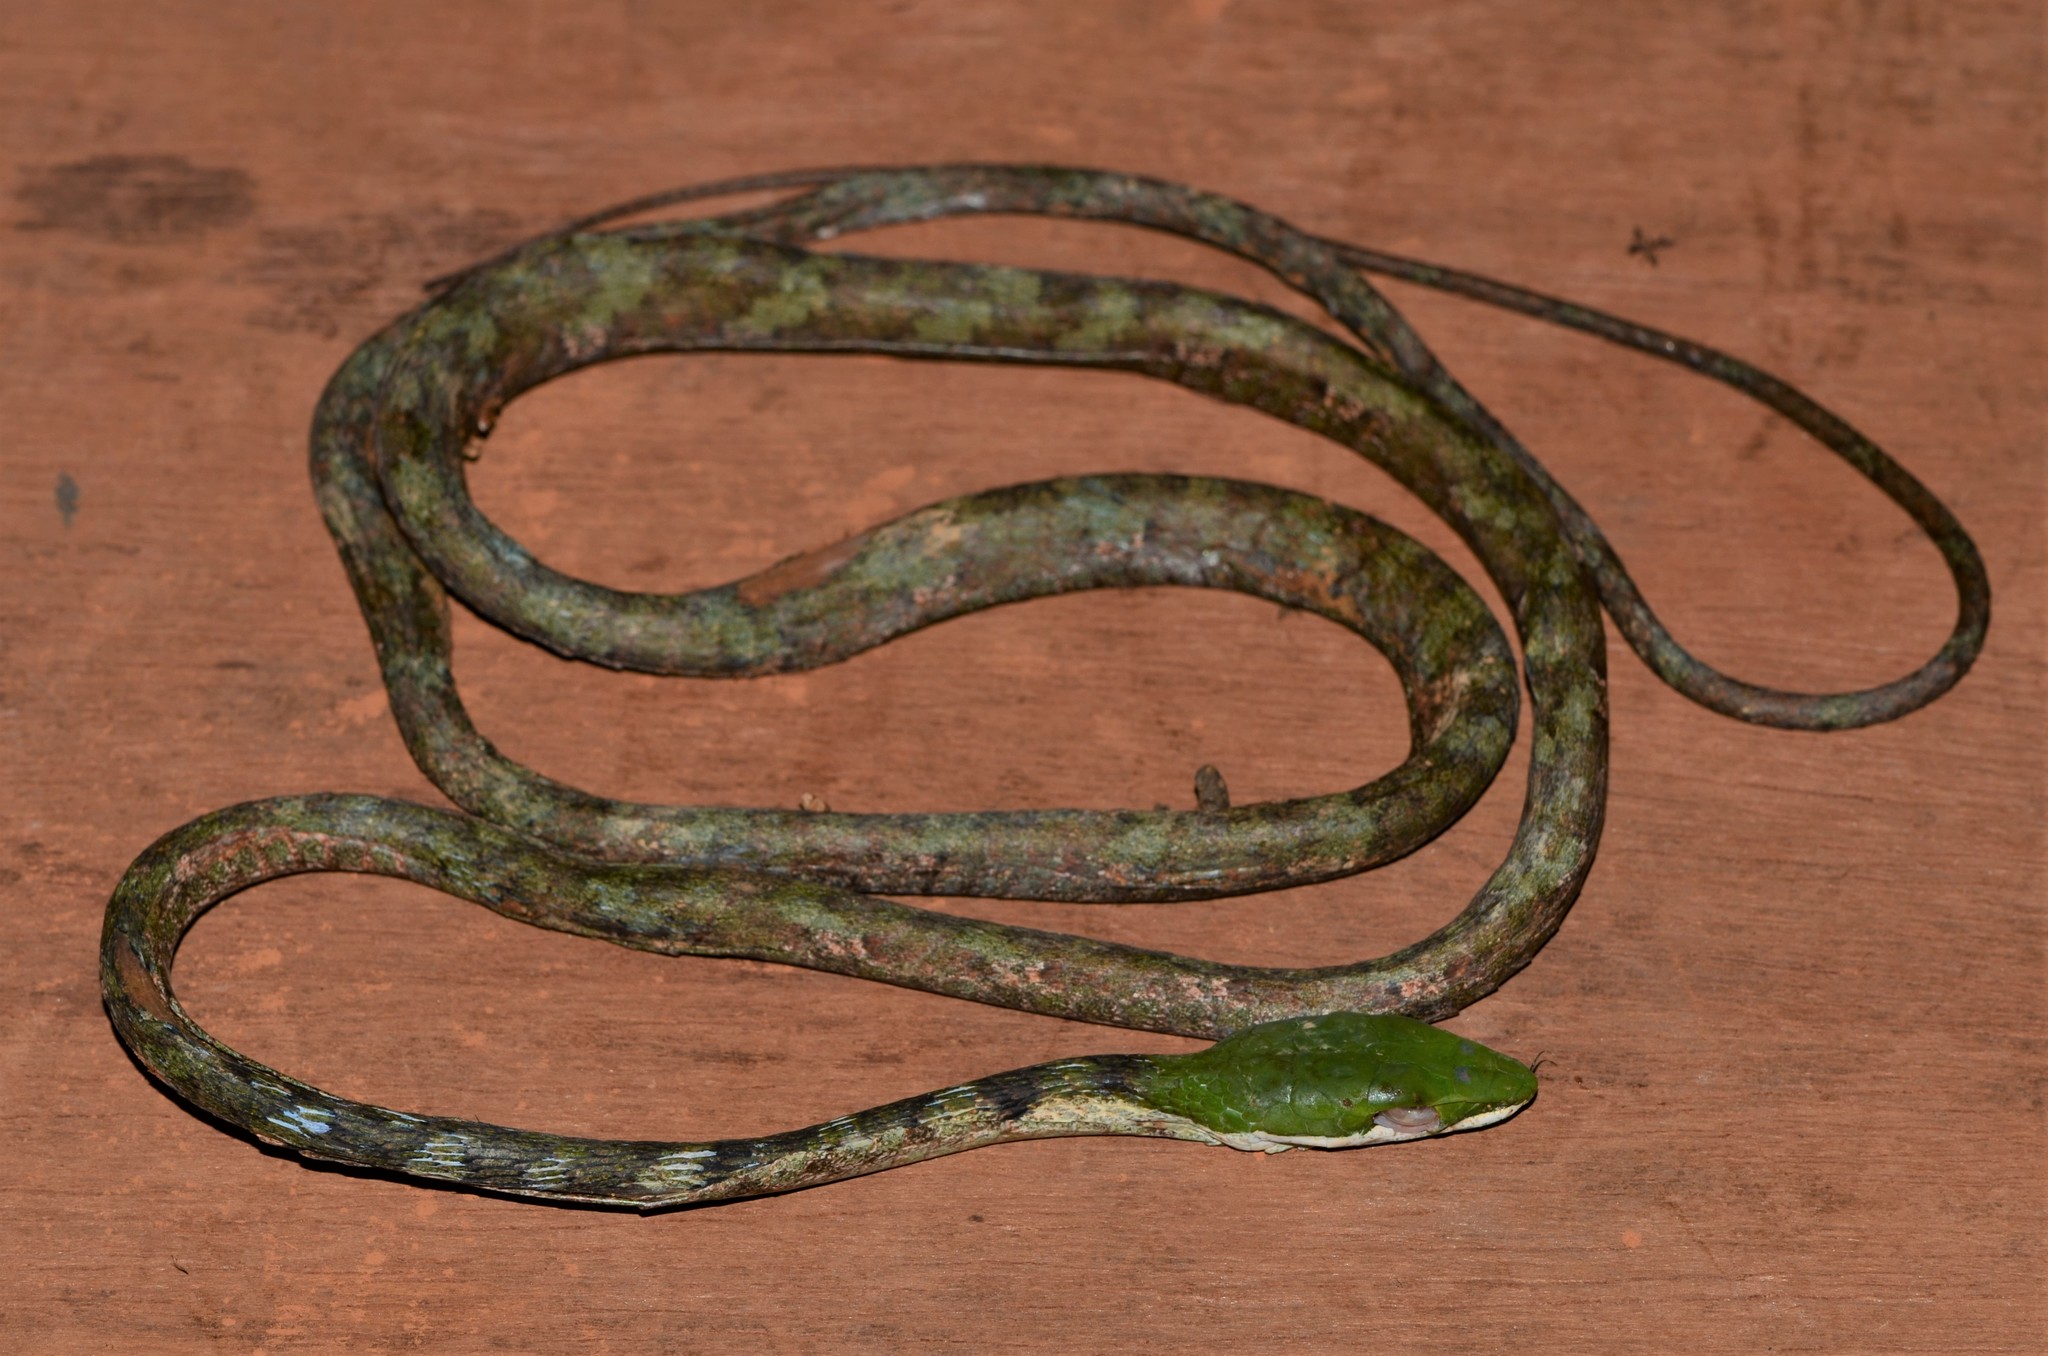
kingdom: Animalia
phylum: Chordata
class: Squamata
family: Colubridae
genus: Thelotornis
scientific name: Thelotornis kirtlandii
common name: Bird snake
